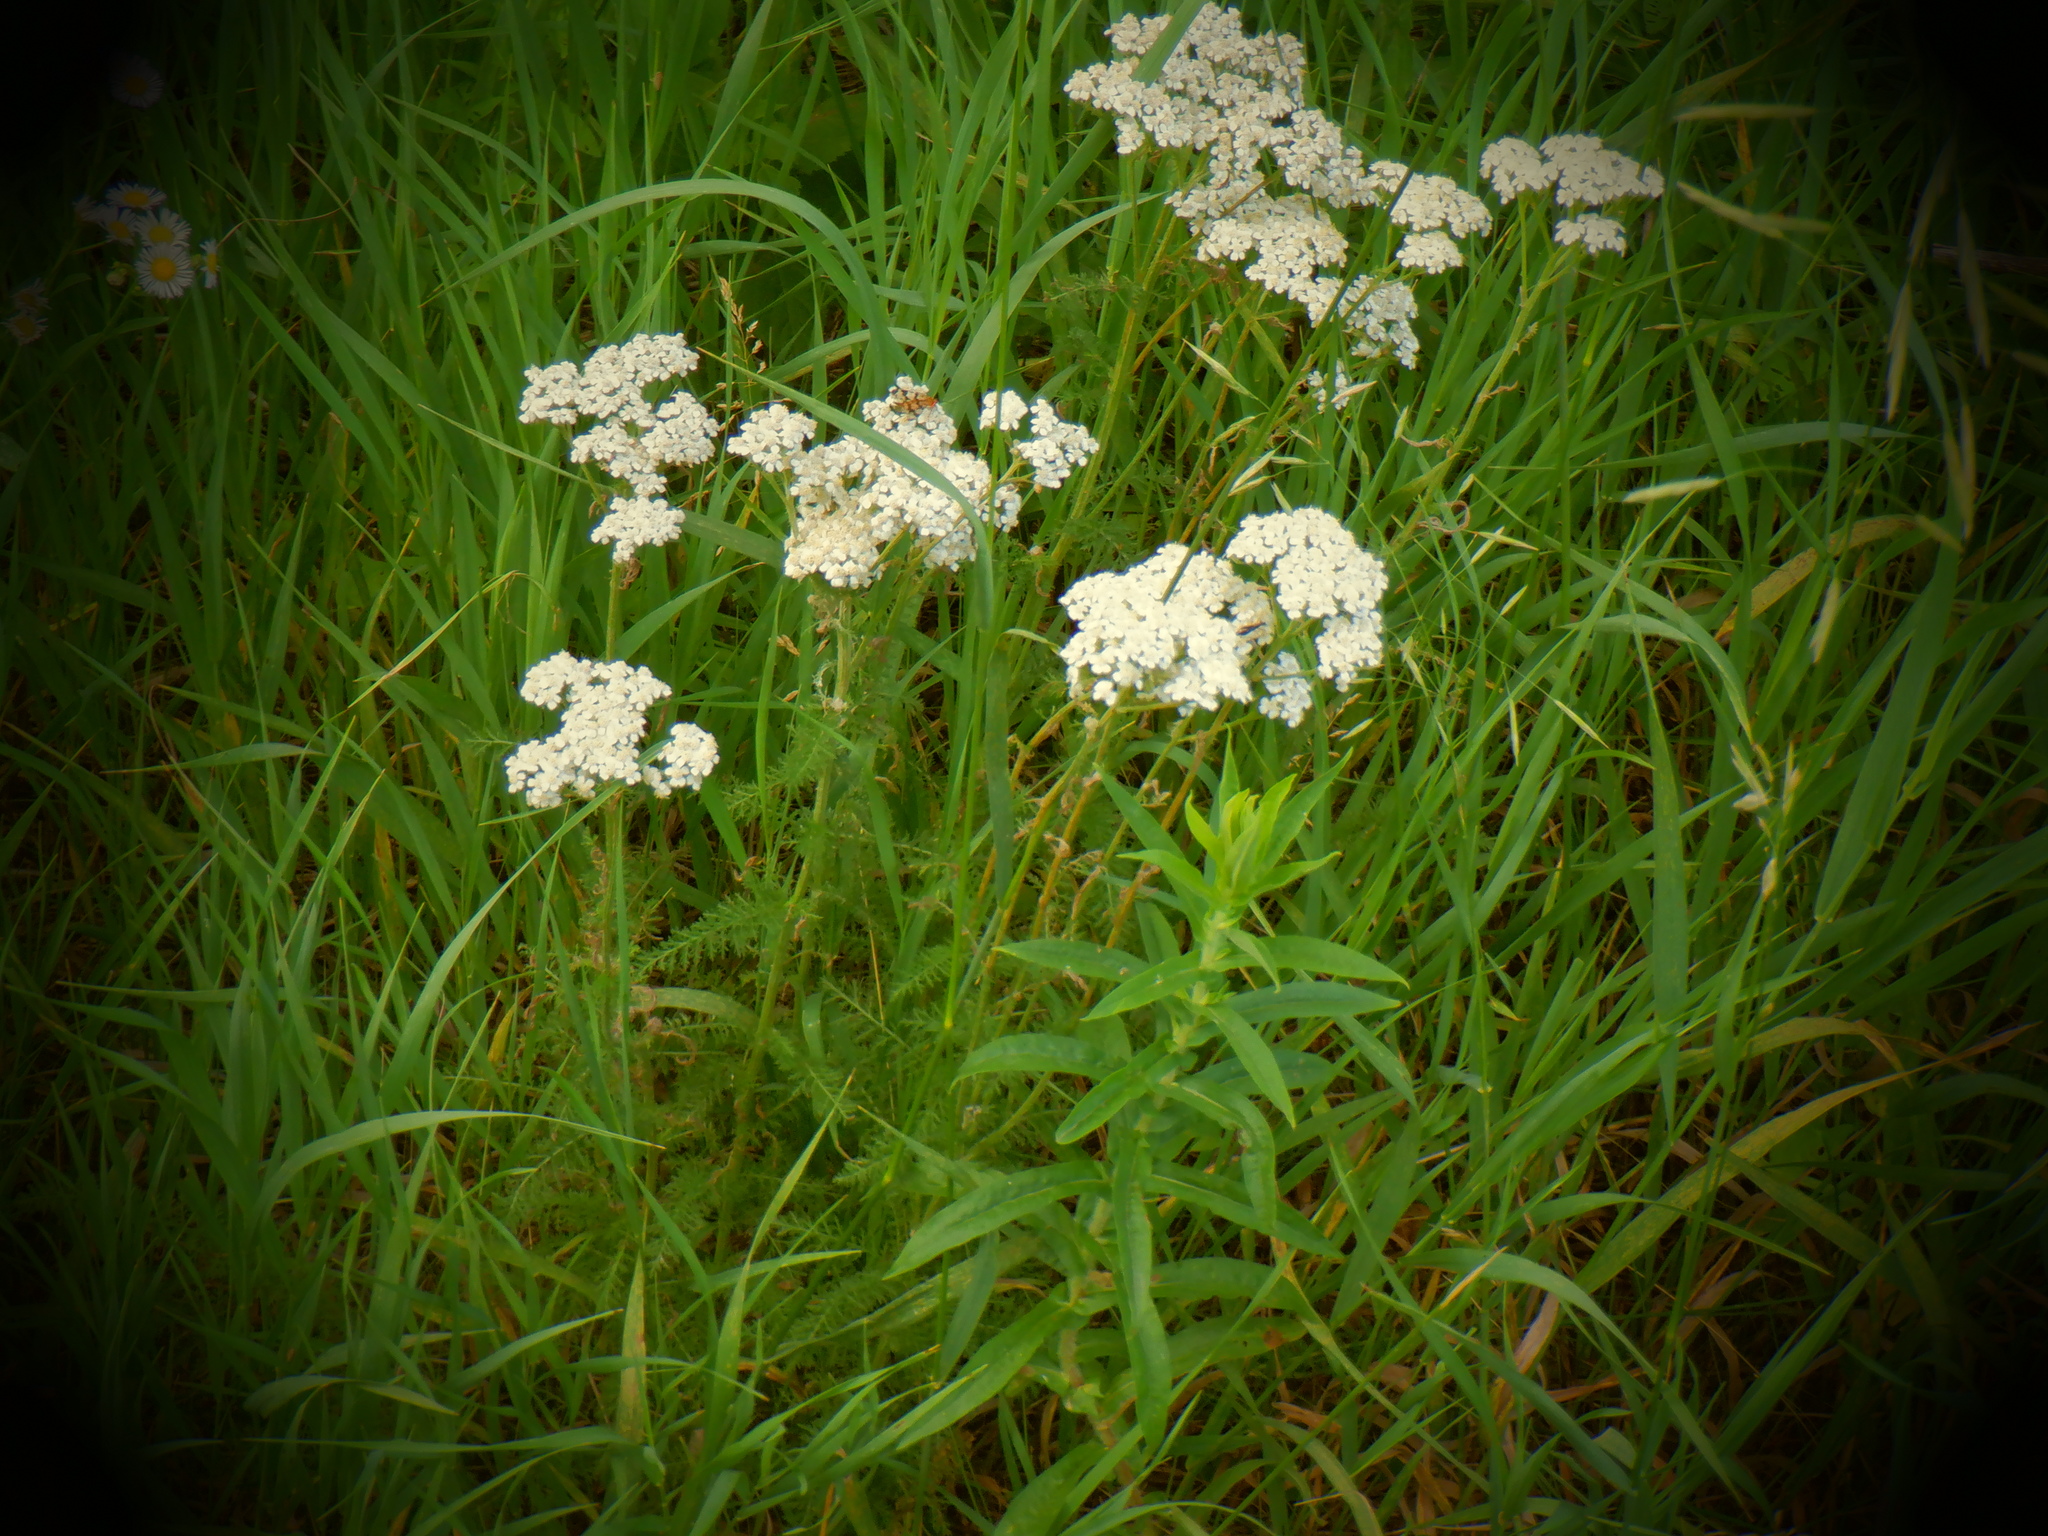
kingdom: Plantae
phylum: Tracheophyta
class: Magnoliopsida
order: Asterales
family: Asteraceae
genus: Achillea
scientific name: Achillea millefolium
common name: Yarrow
